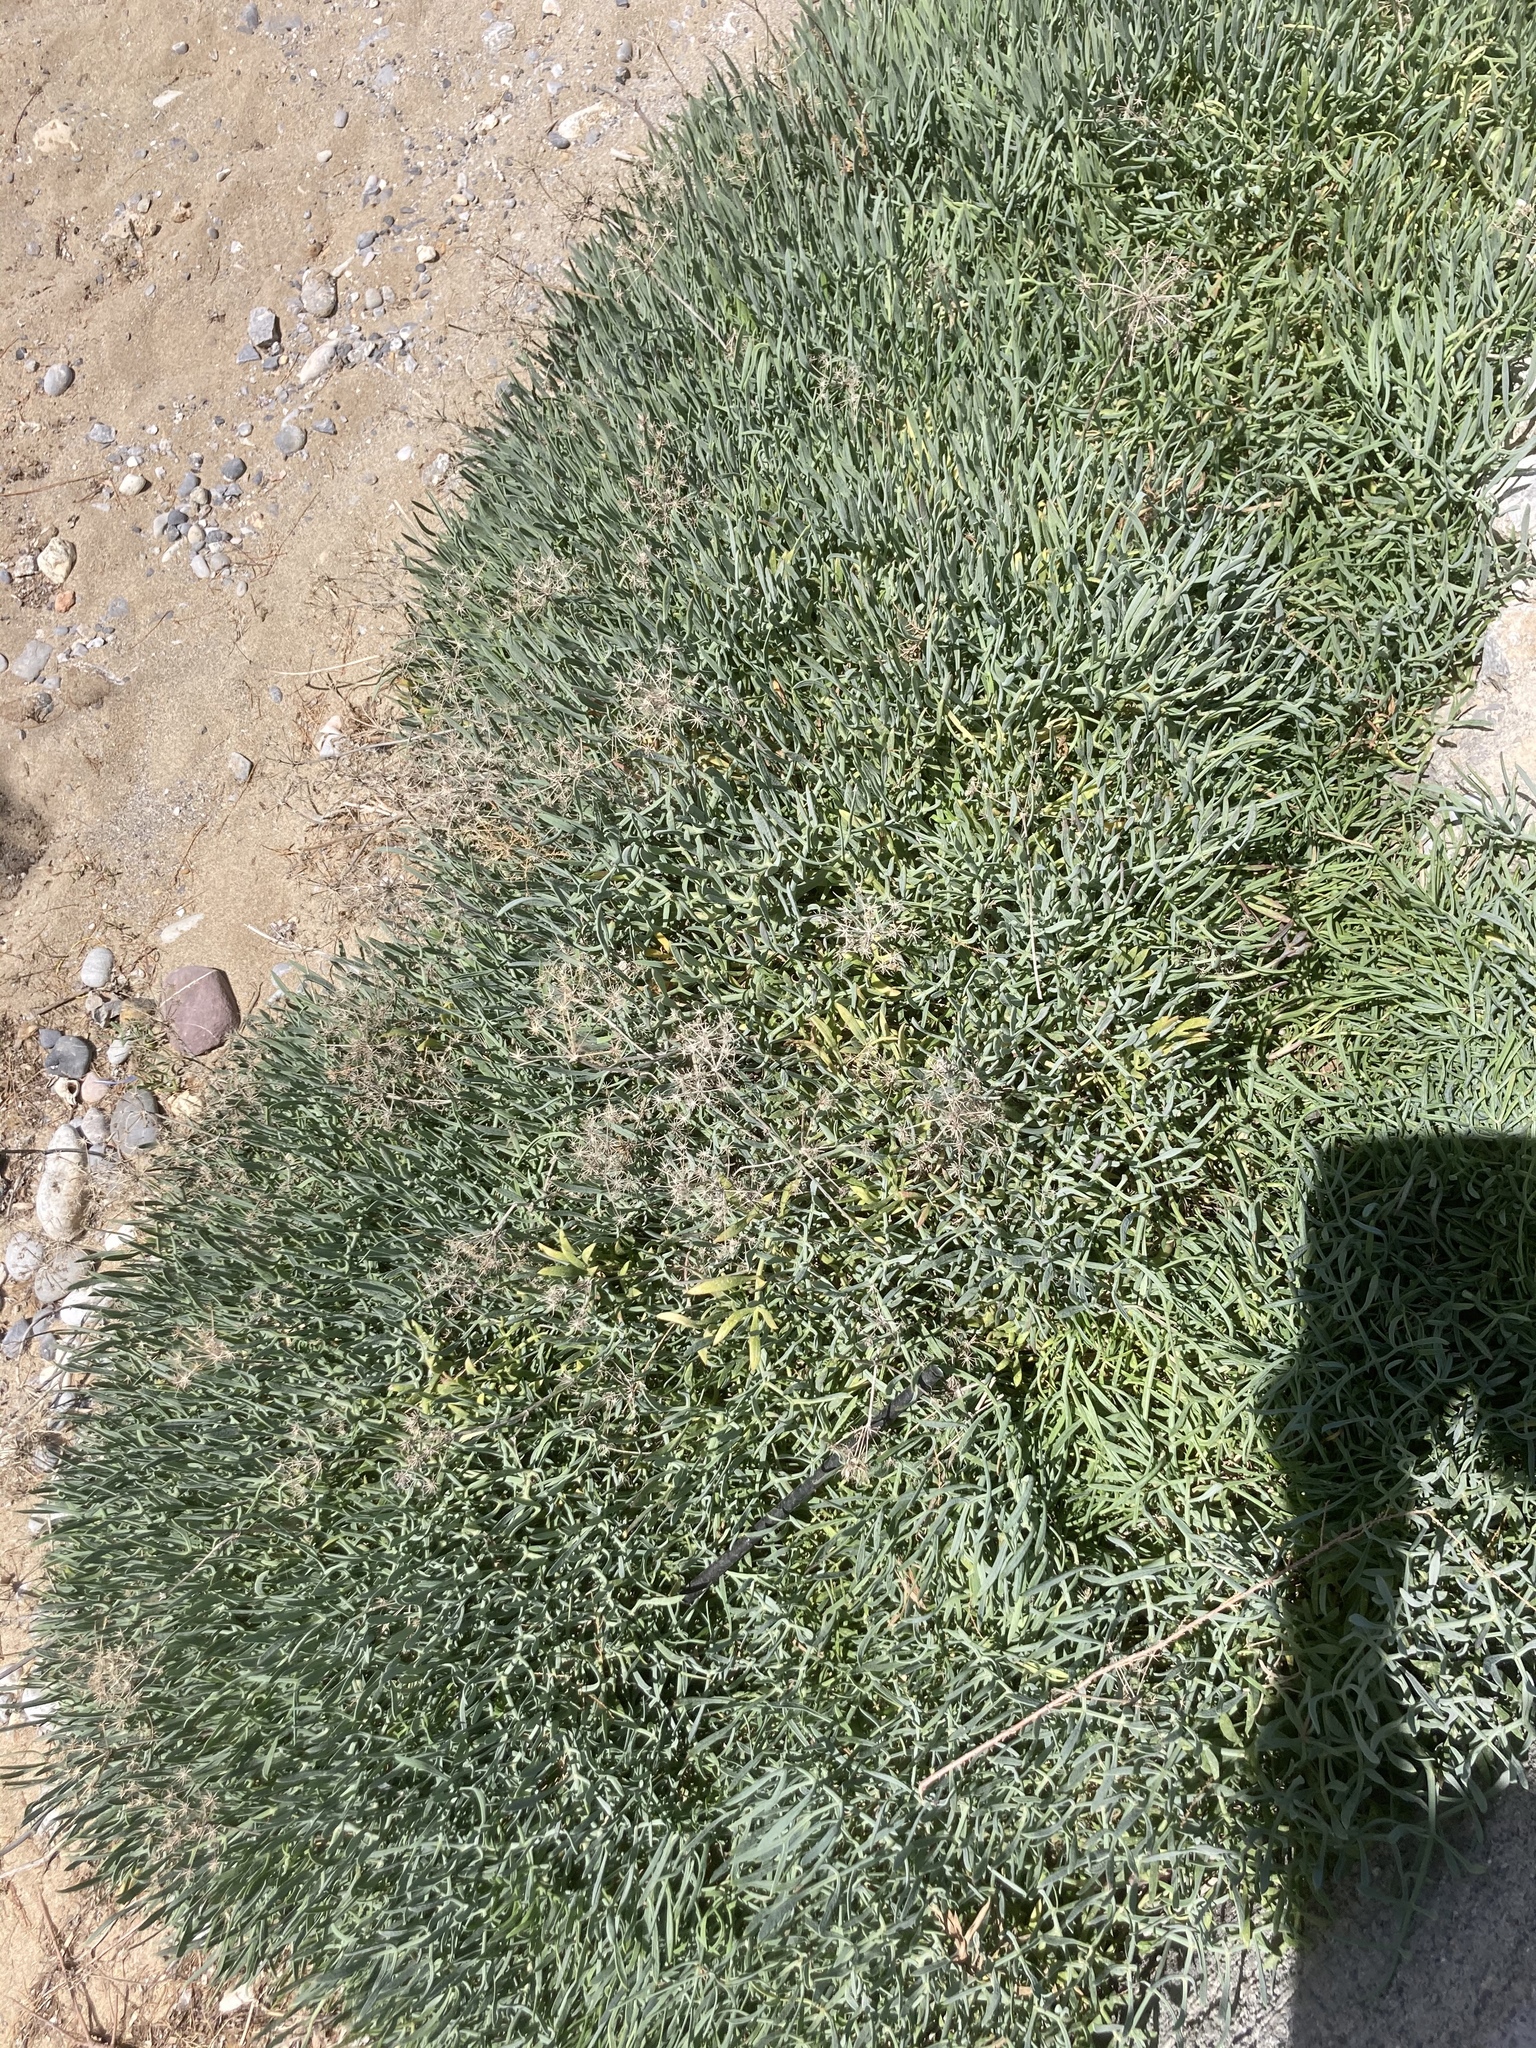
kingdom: Plantae
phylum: Tracheophyta
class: Magnoliopsida
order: Apiales
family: Apiaceae
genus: Crithmum
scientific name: Crithmum maritimum
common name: Rock samphire
